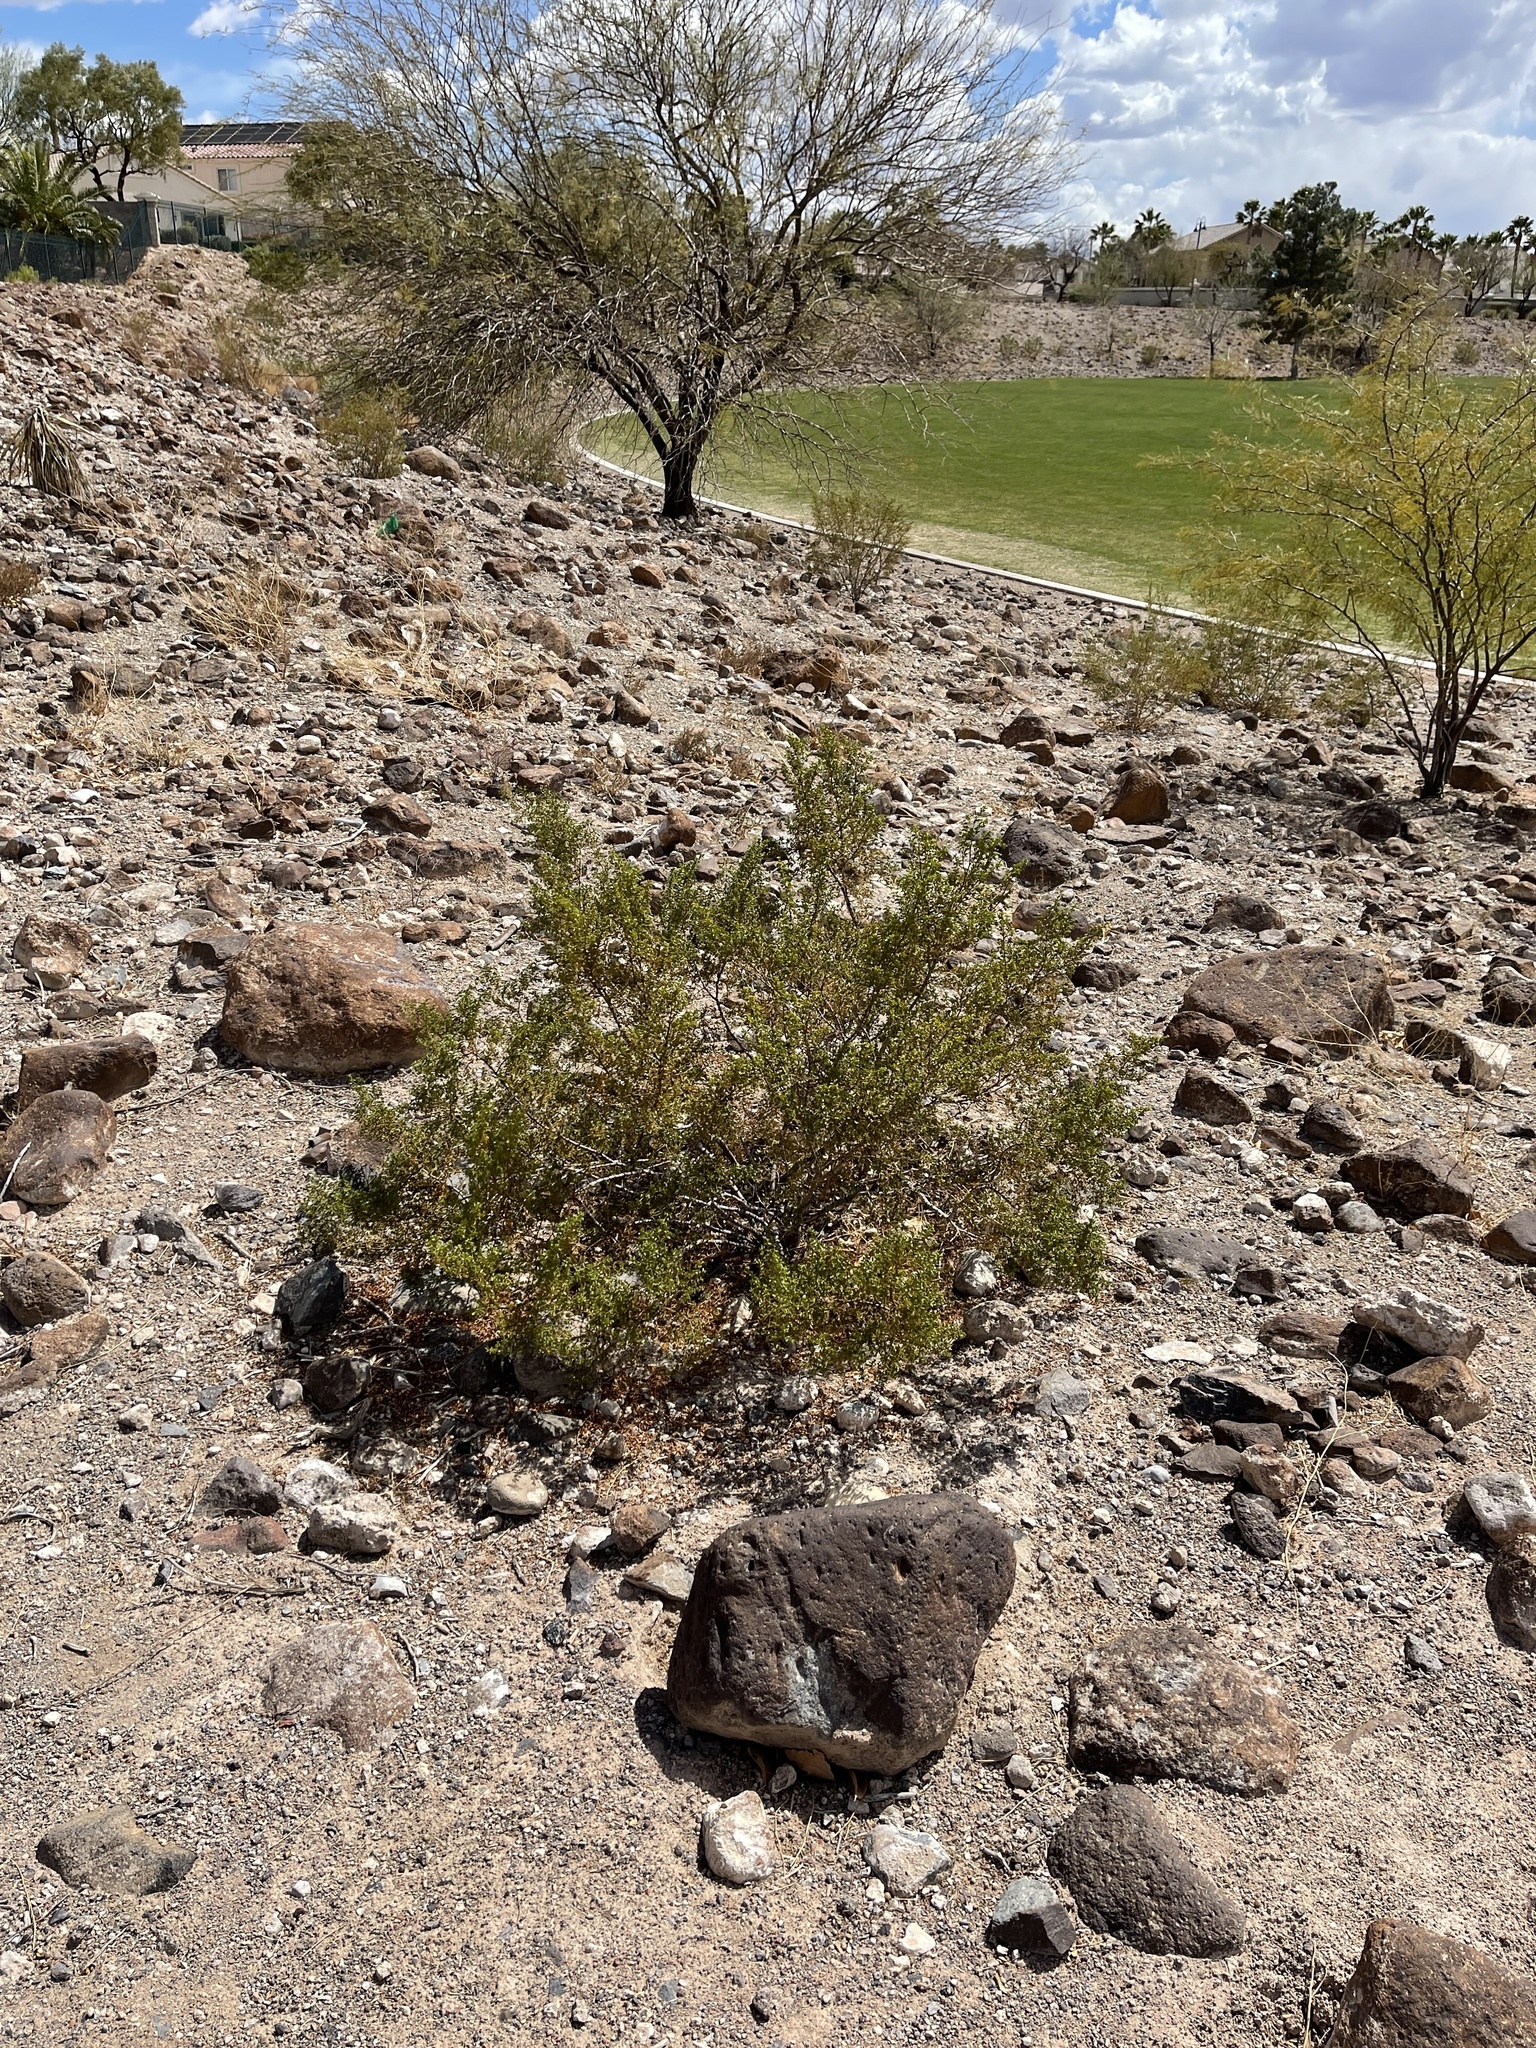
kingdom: Plantae
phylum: Tracheophyta
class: Magnoliopsida
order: Zygophyllales
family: Zygophyllaceae
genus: Larrea
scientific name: Larrea tridentata
